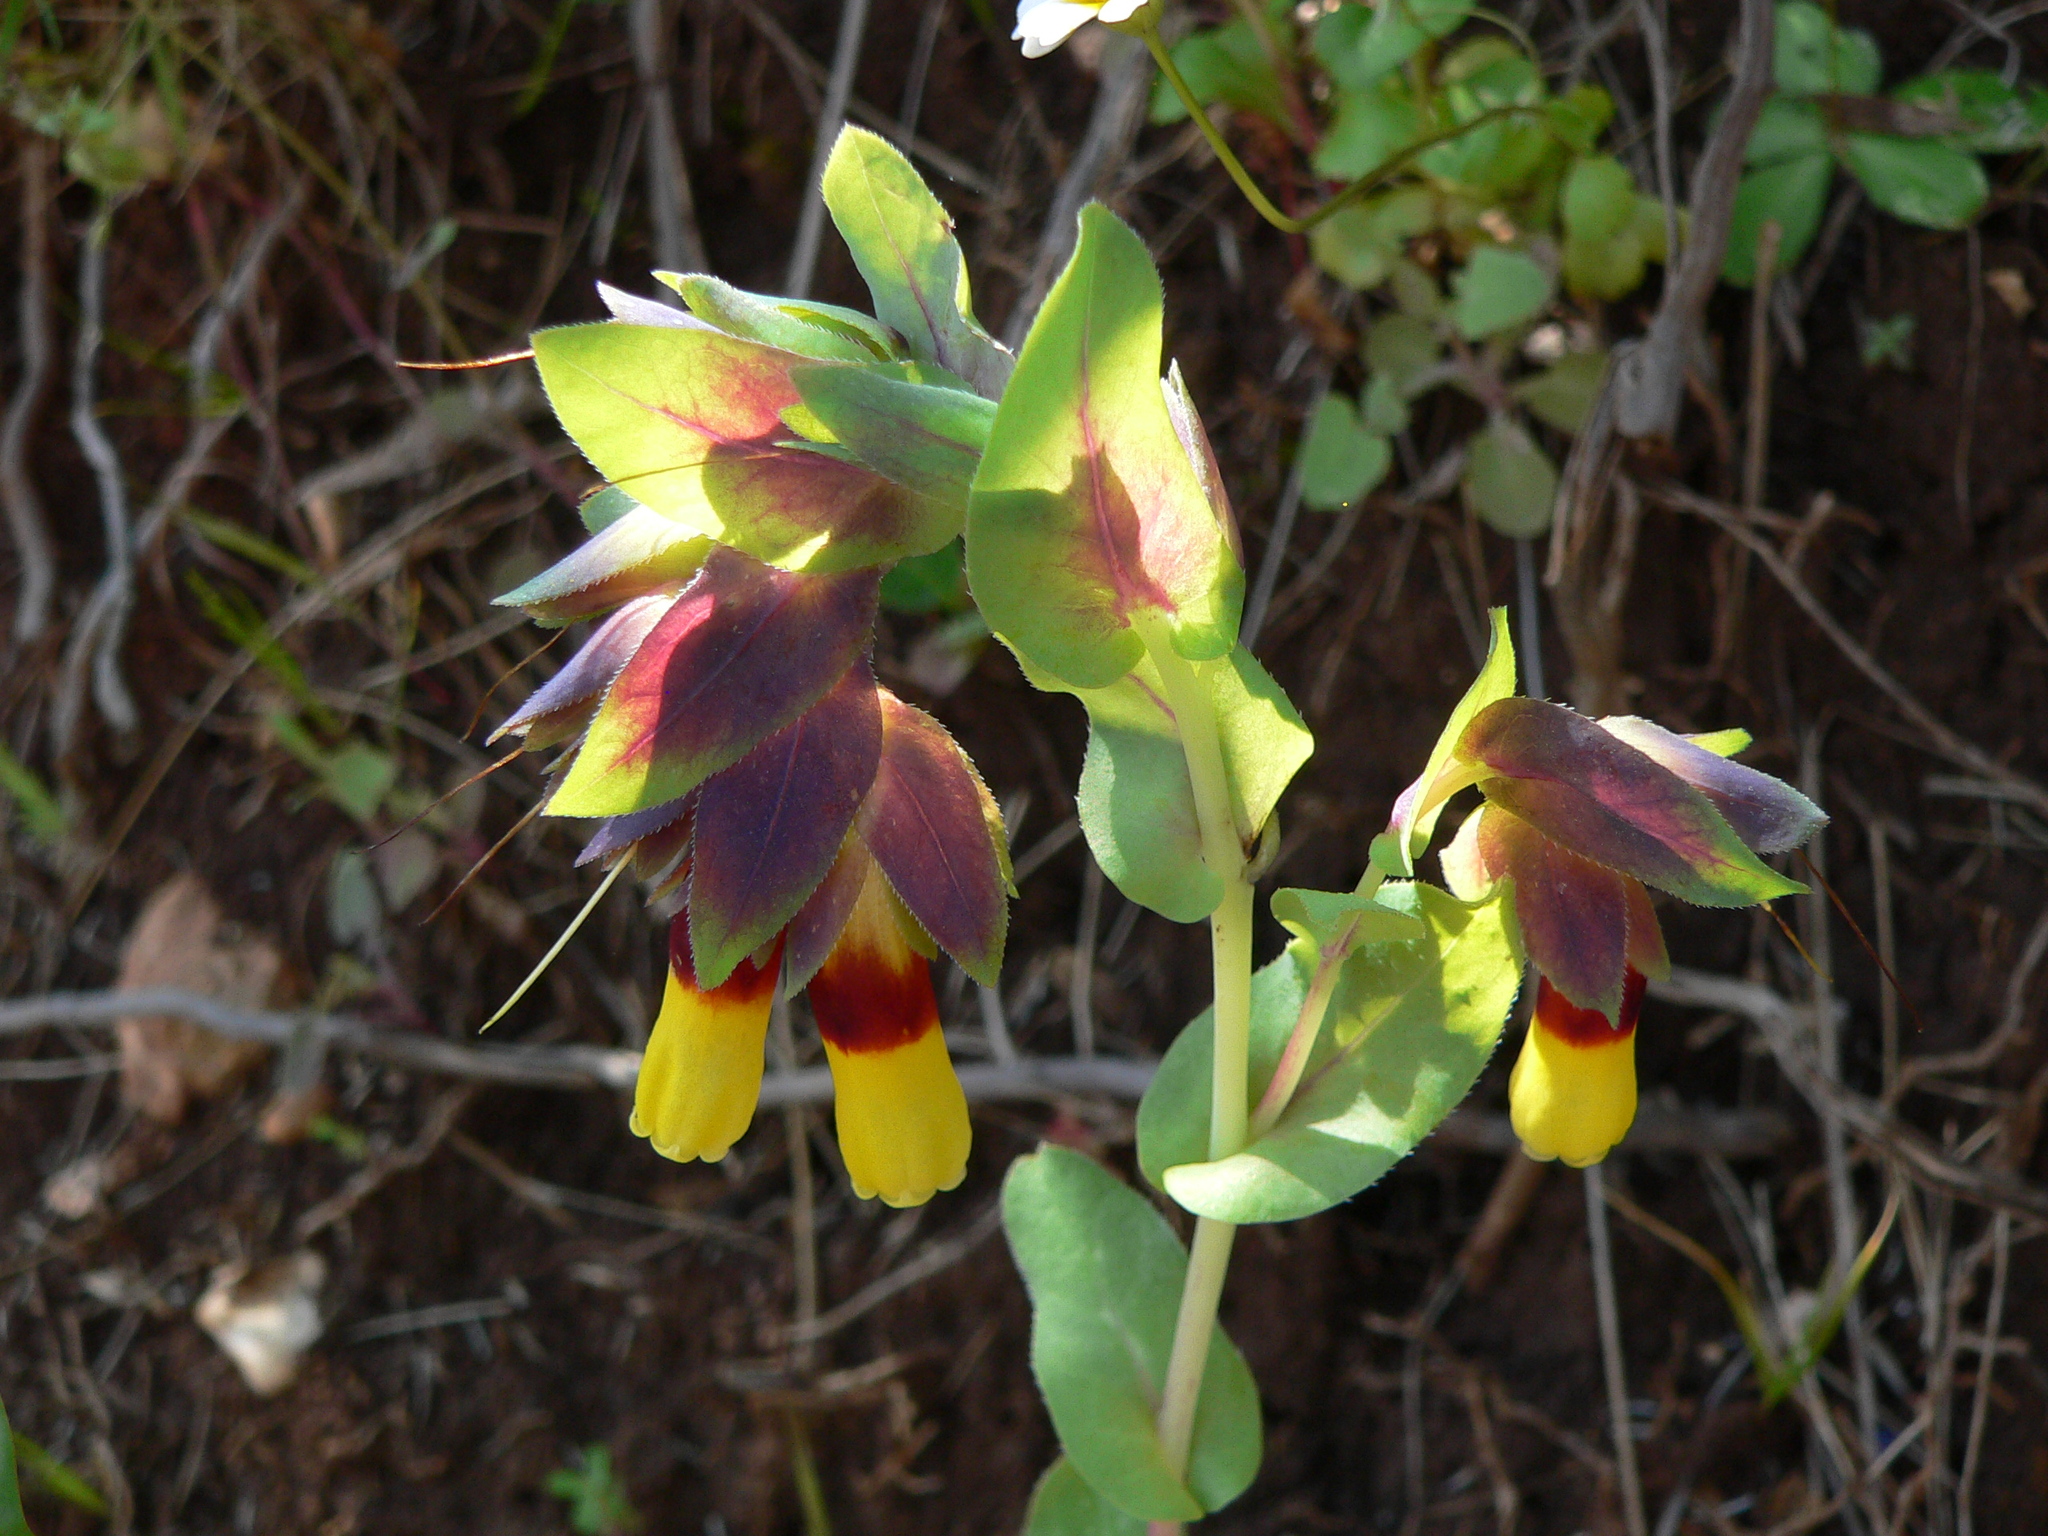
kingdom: Plantae
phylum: Tracheophyta
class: Magnoliopsida
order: Boraginales
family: Boraginaceae
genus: Cerinthe
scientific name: Cerinthe major
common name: Greater honeywort
